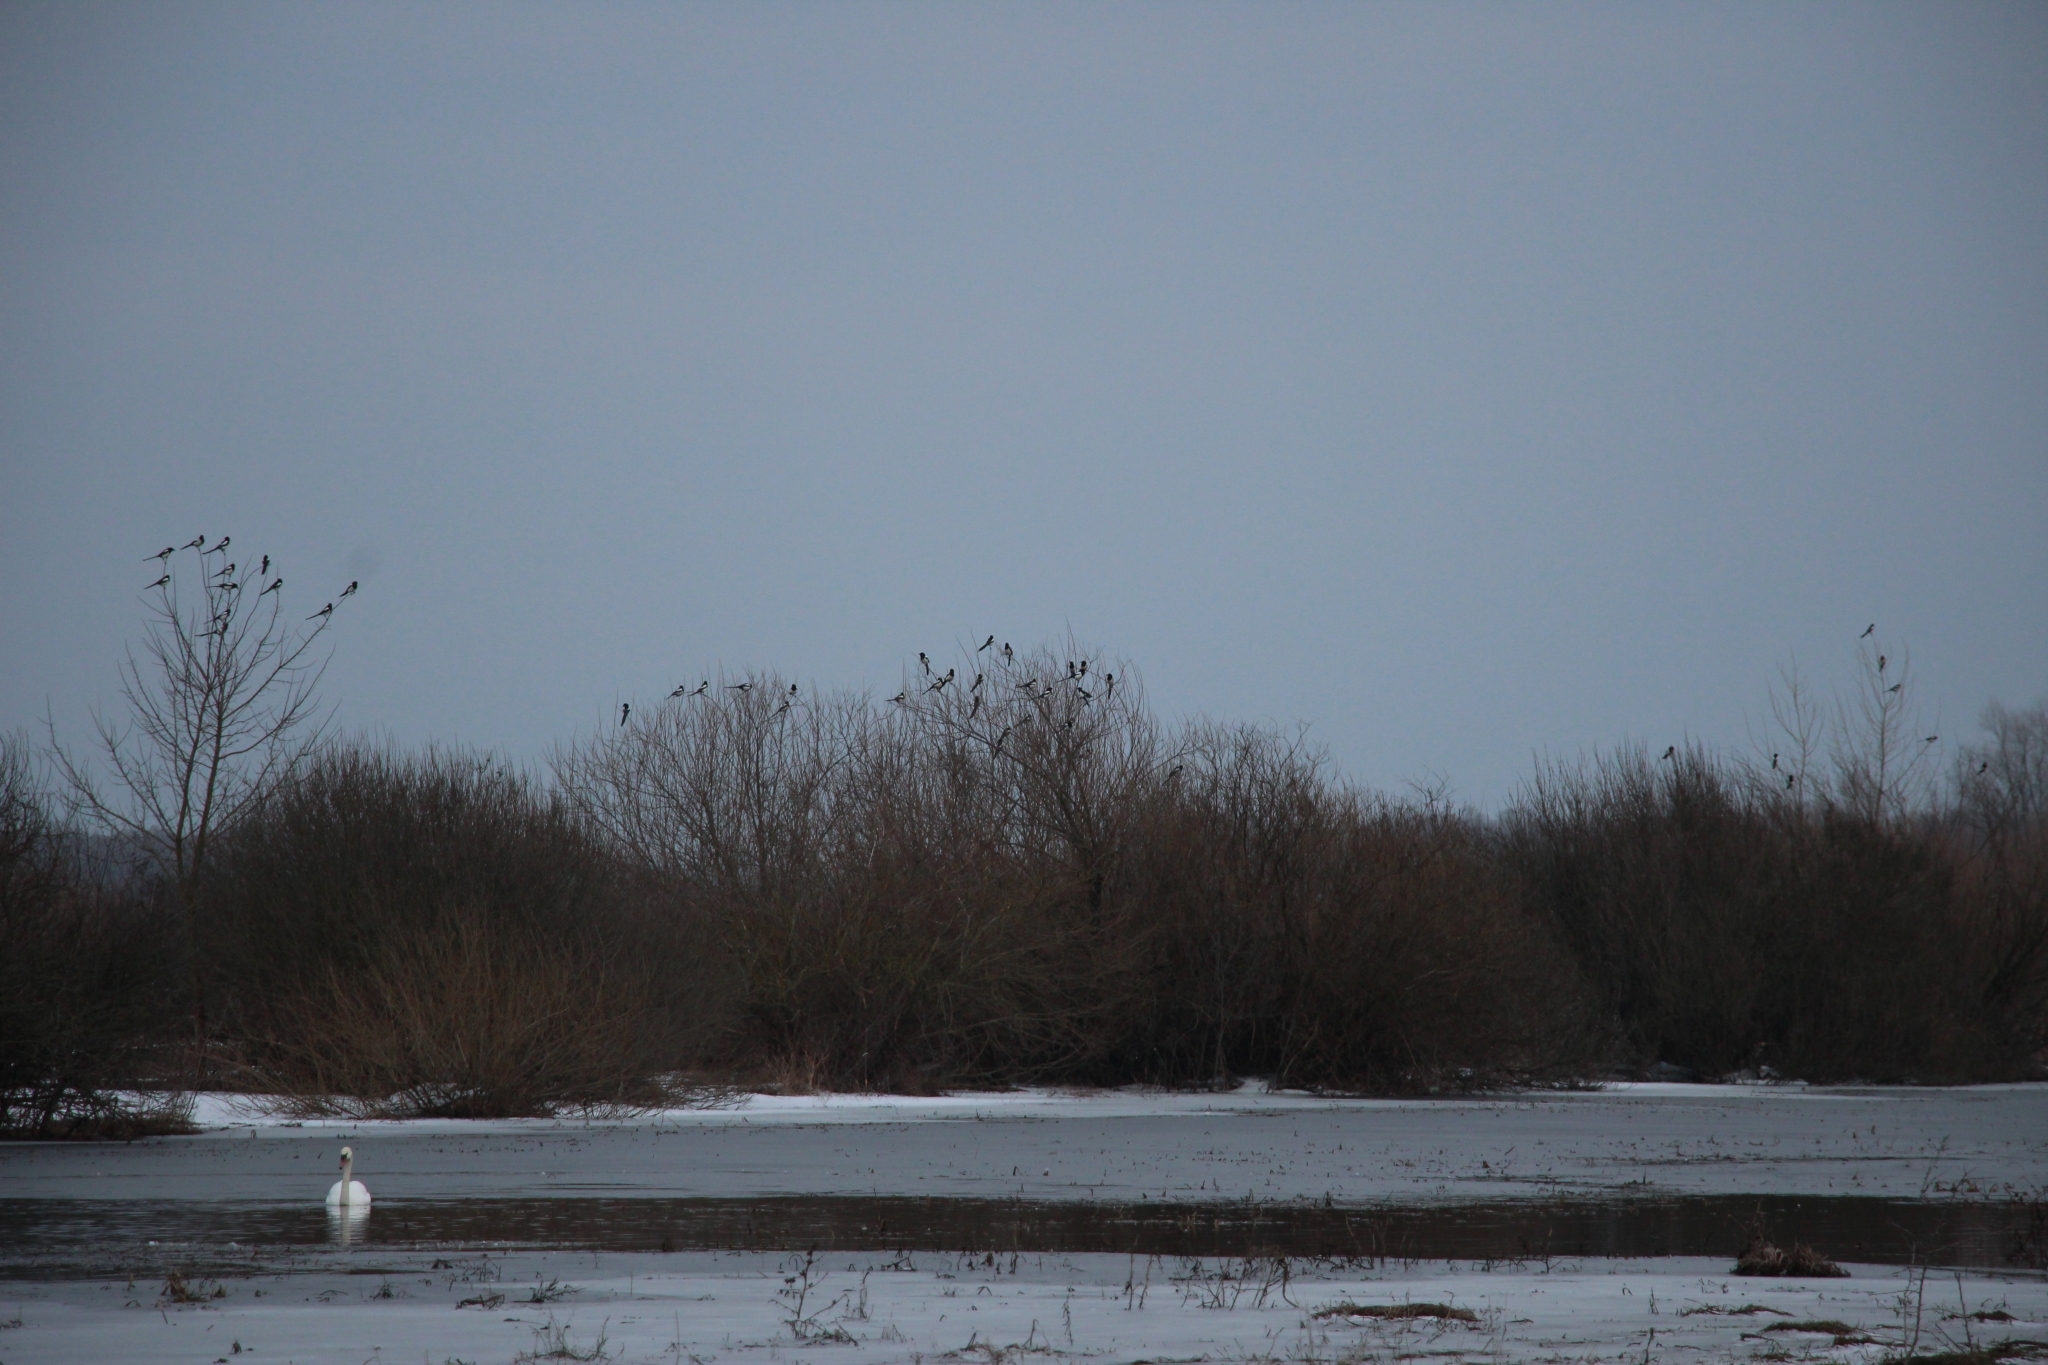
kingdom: Animalia
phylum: Chordata
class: Aves
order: Passeriformes
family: Corvidae
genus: Pica
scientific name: Pica pica
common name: Eurasian magpie
